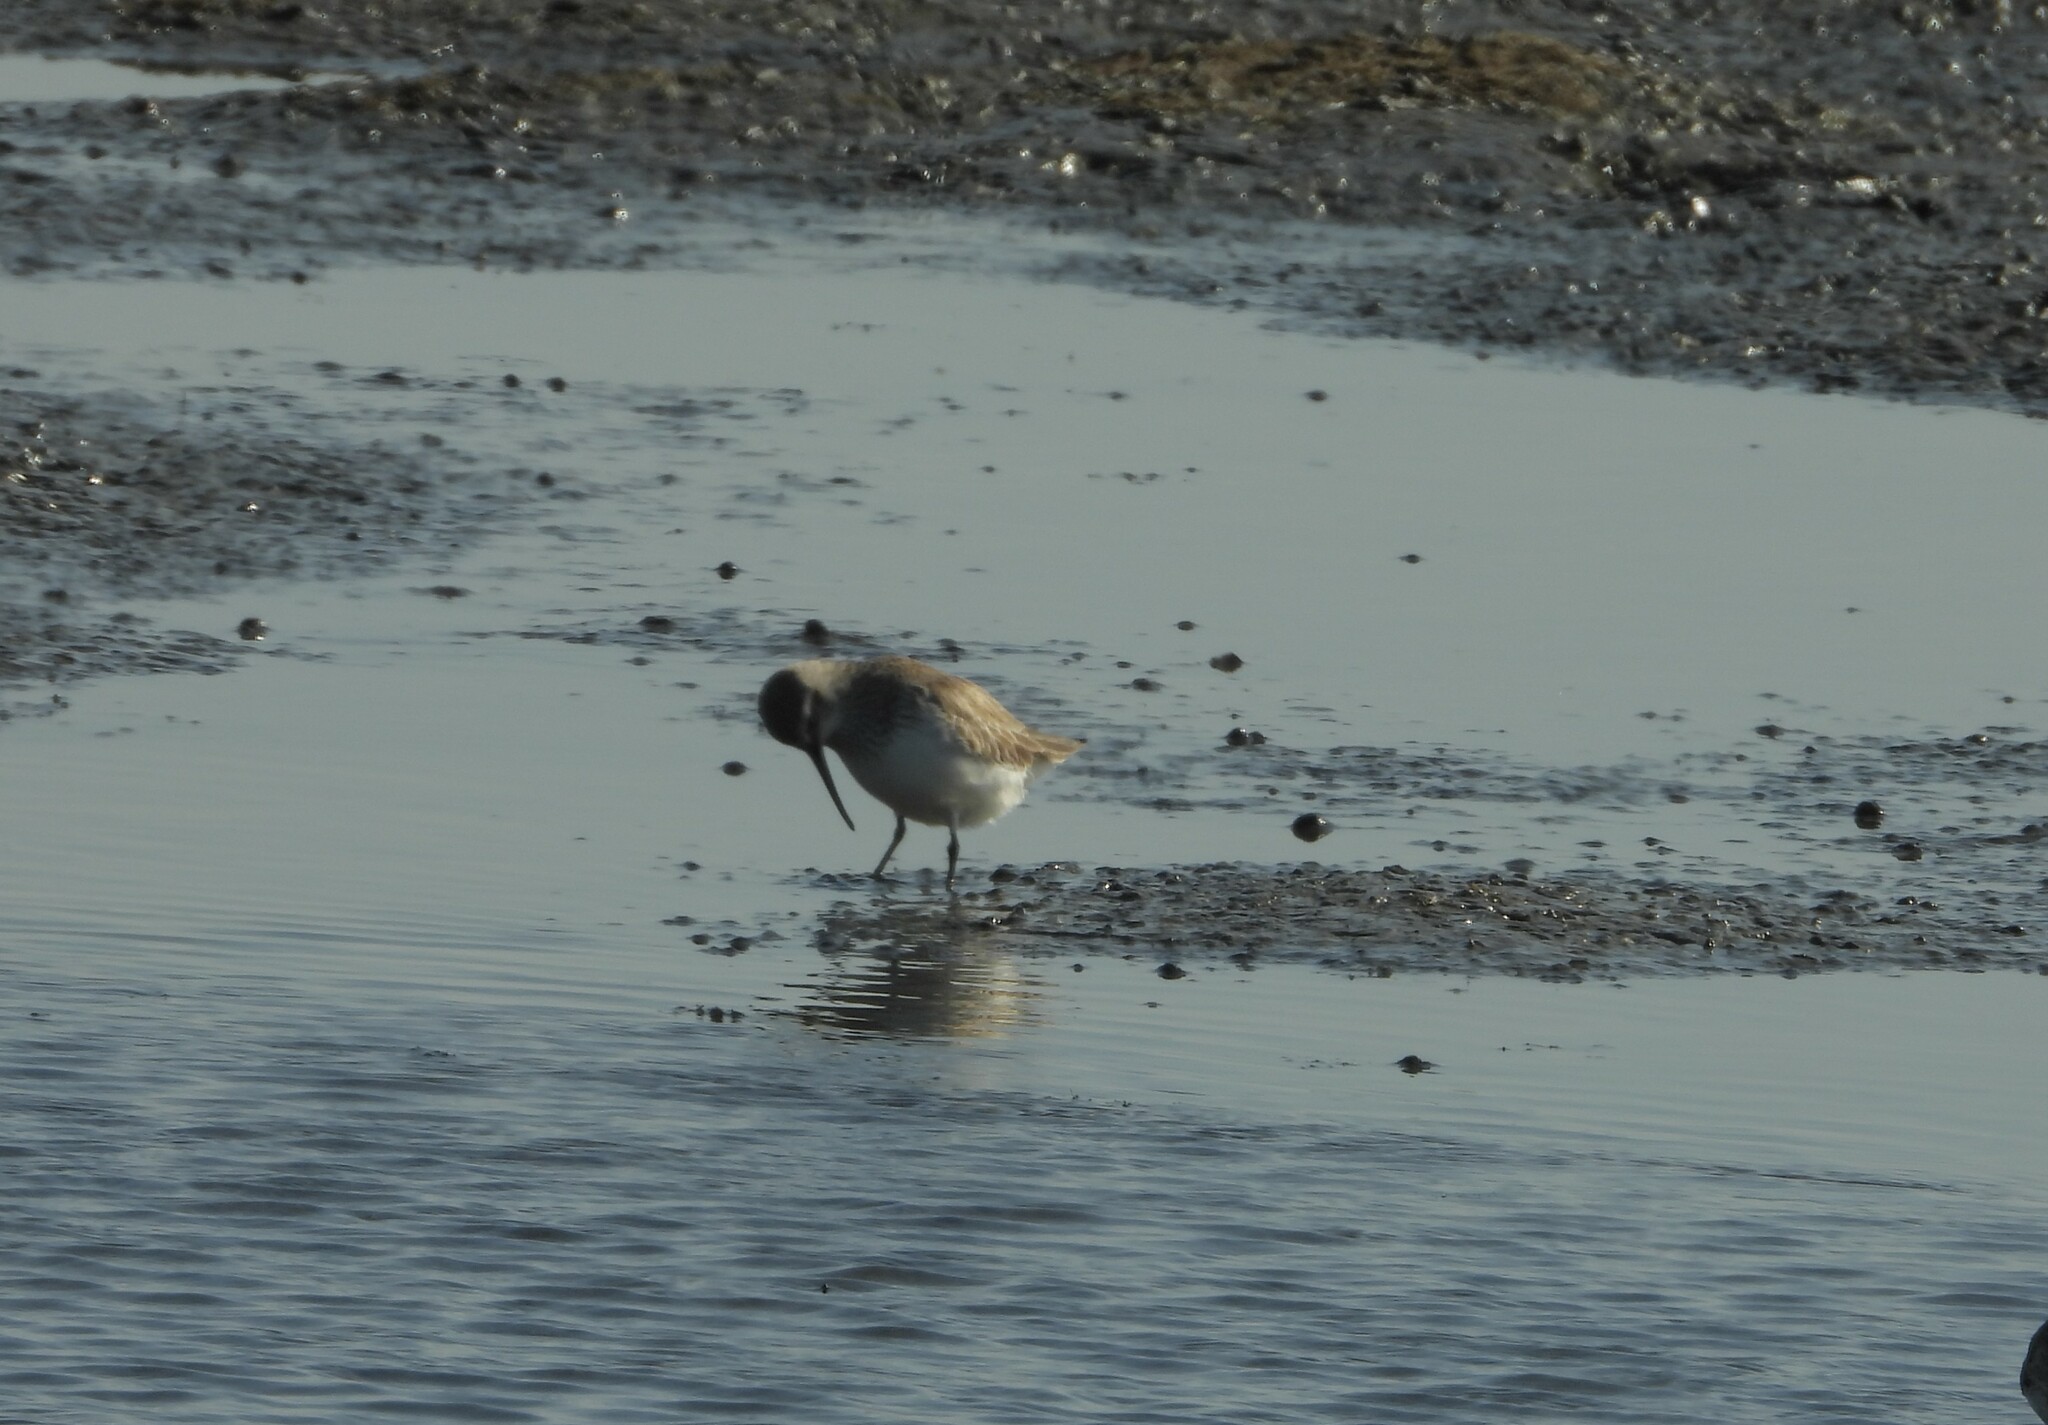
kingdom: Animalia
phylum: Chordata
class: Aves
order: Charadriiformes
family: Scolopacidae
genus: Calidris
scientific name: Calidris ferruginea
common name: Curlew sandpiper
